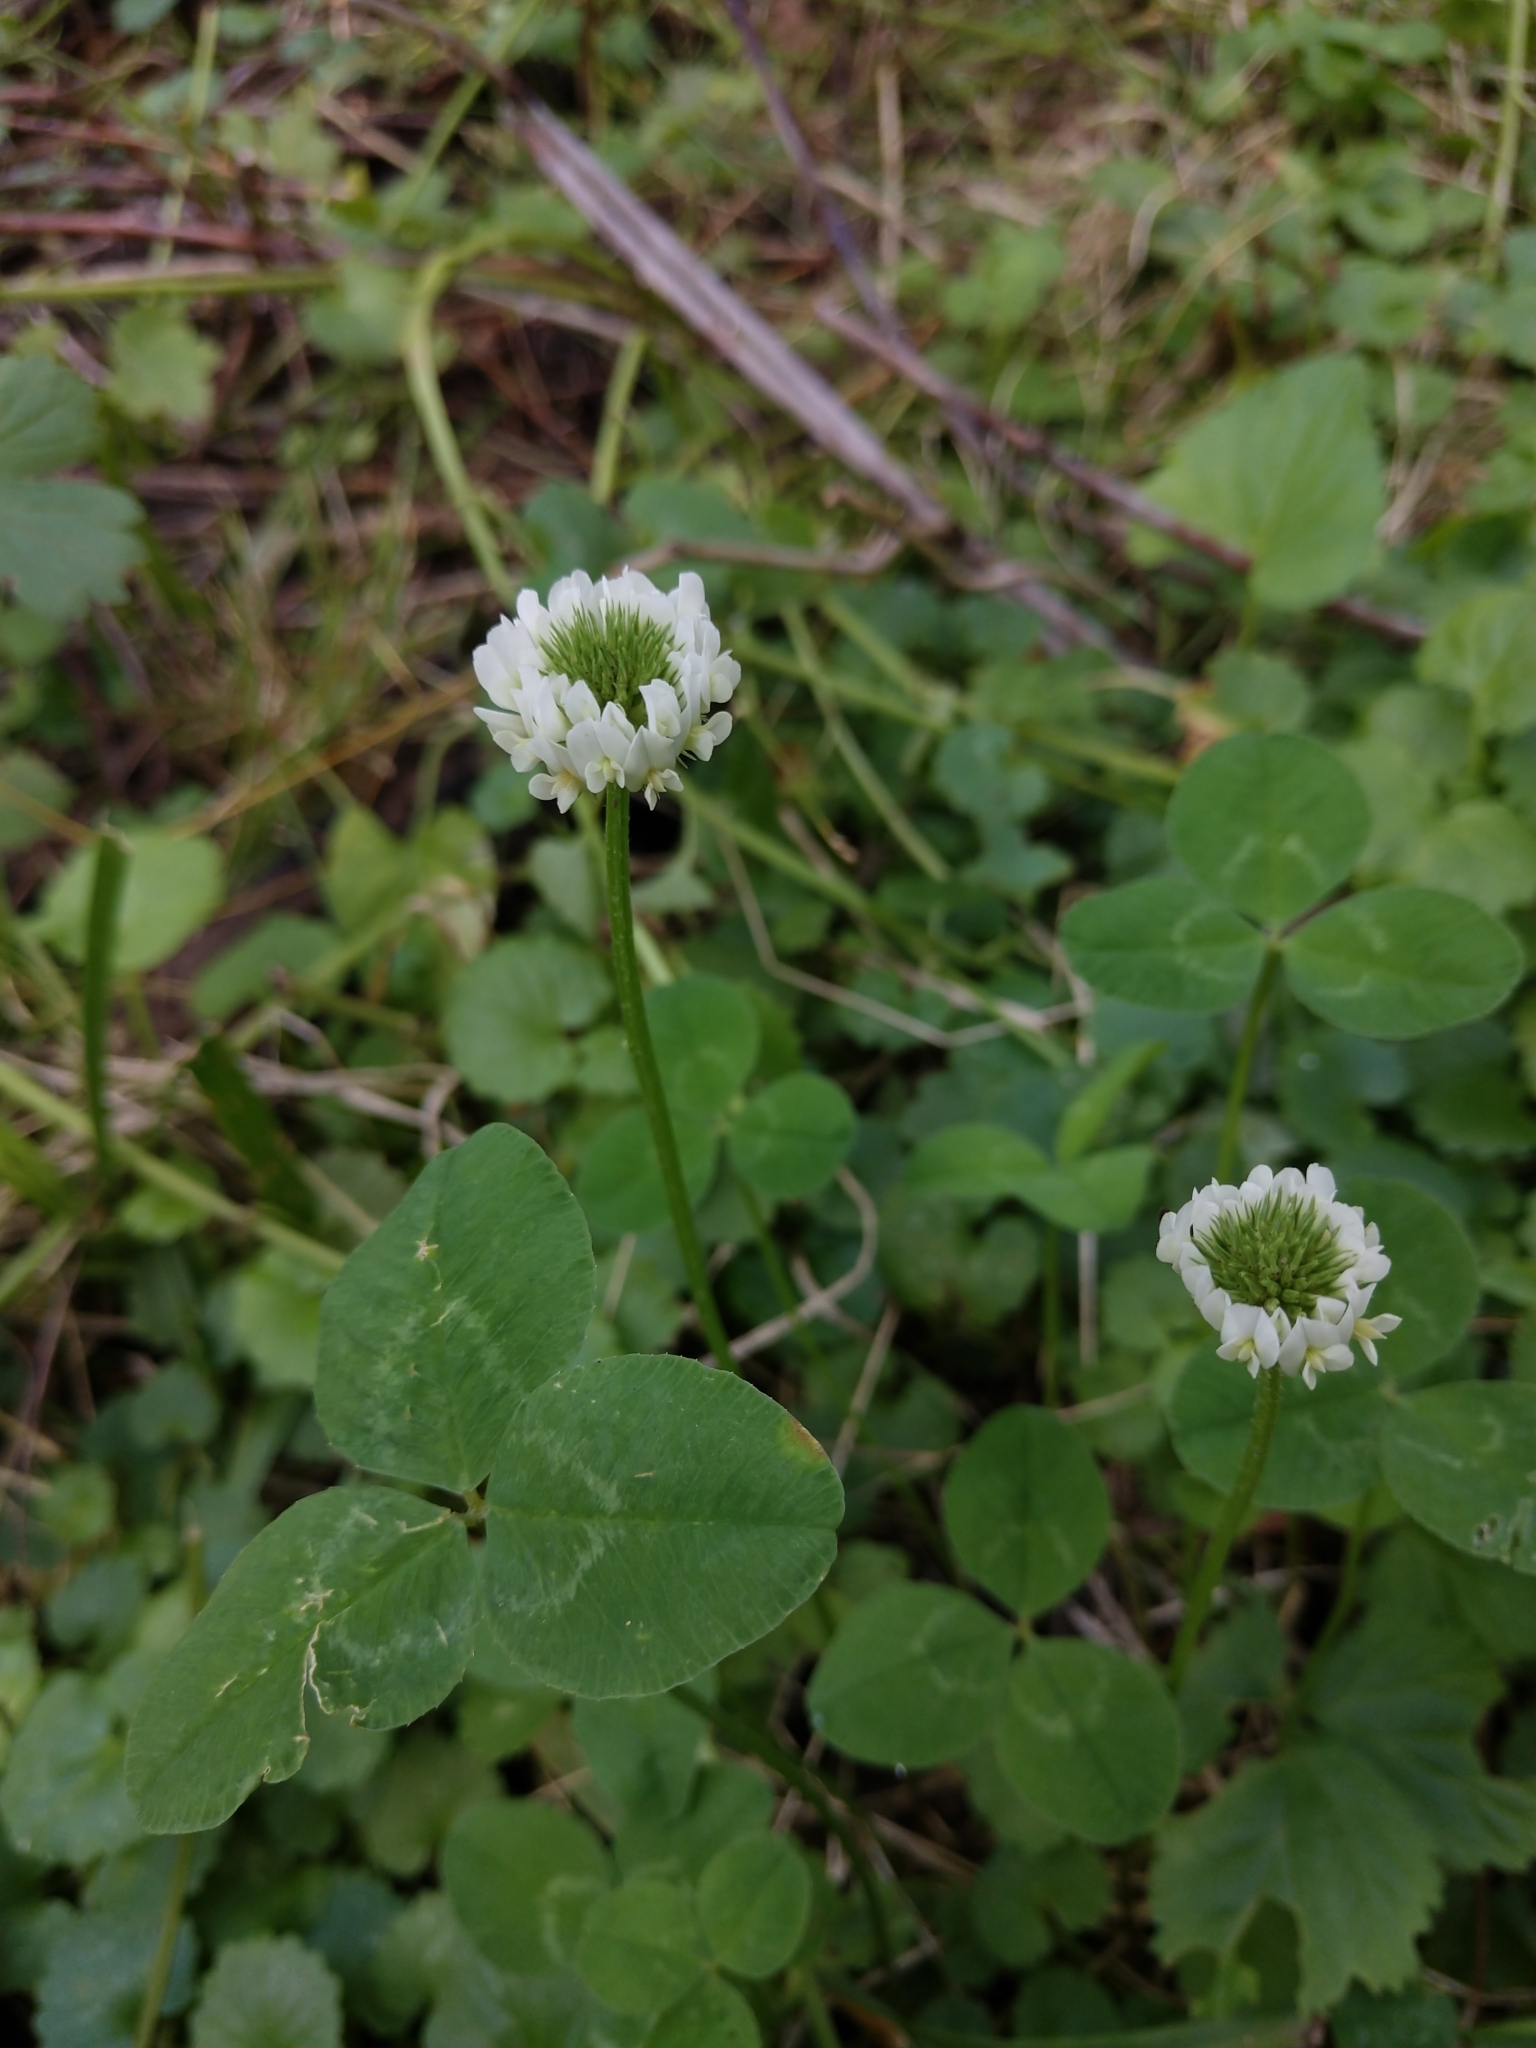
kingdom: Plantae
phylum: Tracheophyta
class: Magnoliopsida
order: Fabales
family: Fabaceae
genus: Trifolium
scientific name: Trifolium repens
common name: White clover
